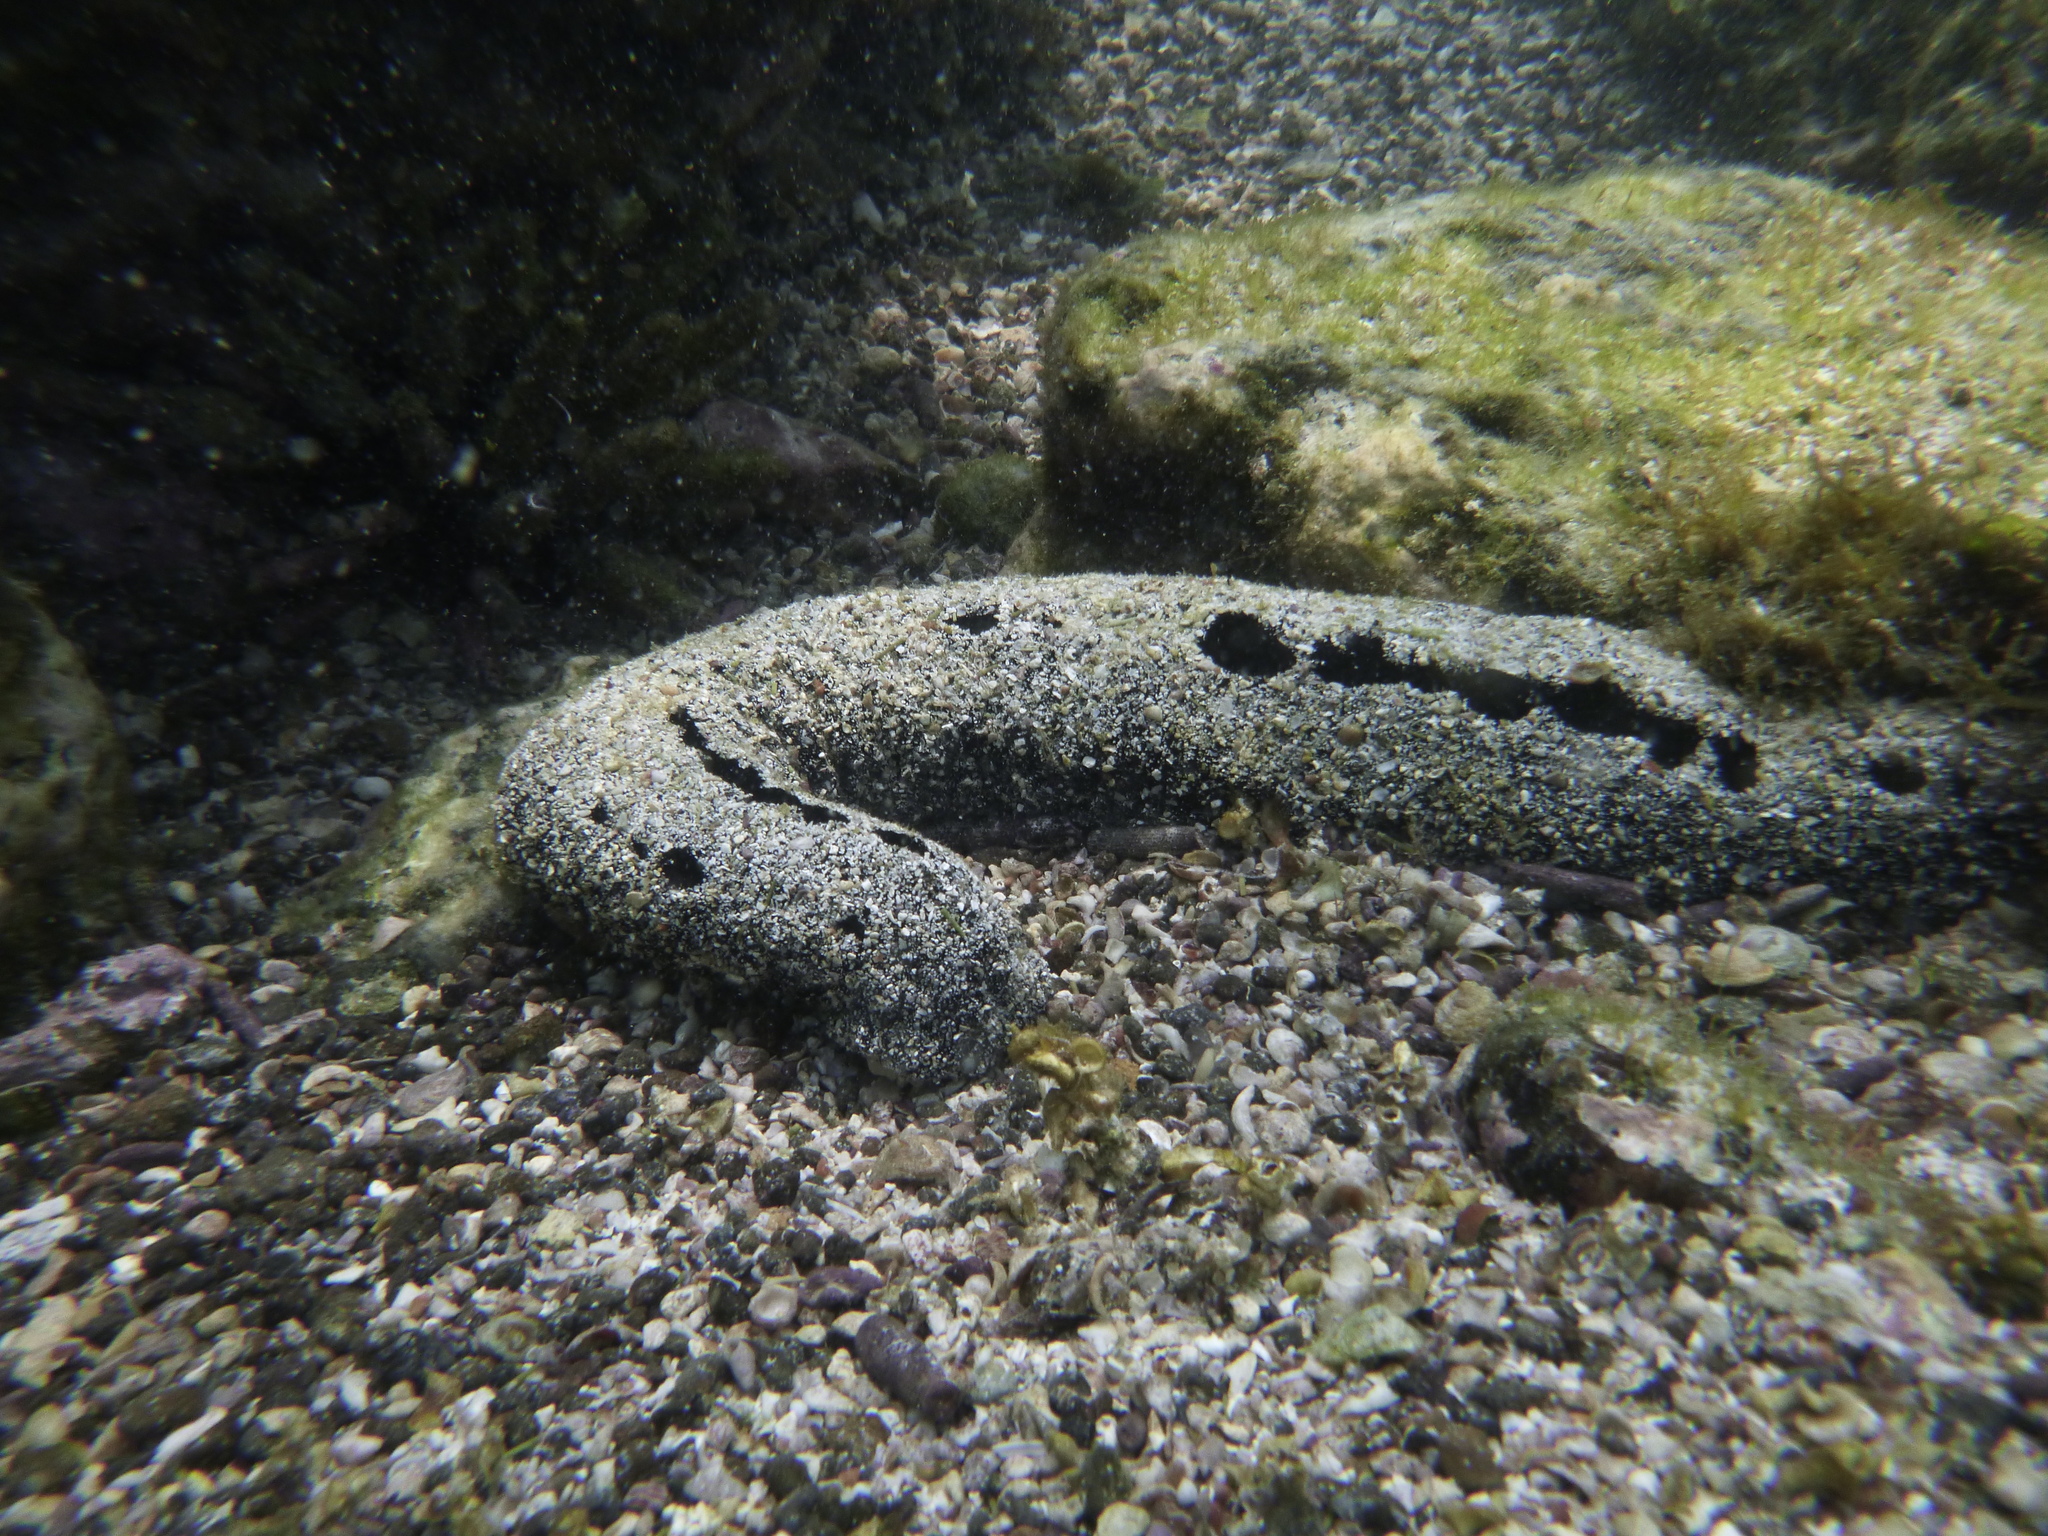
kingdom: Animalia
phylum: Echinodermata
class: Holothuroidea
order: Holothuriida
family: Holothuriidae
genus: Holothuria
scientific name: Holothuria atra
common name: Lollyfish
